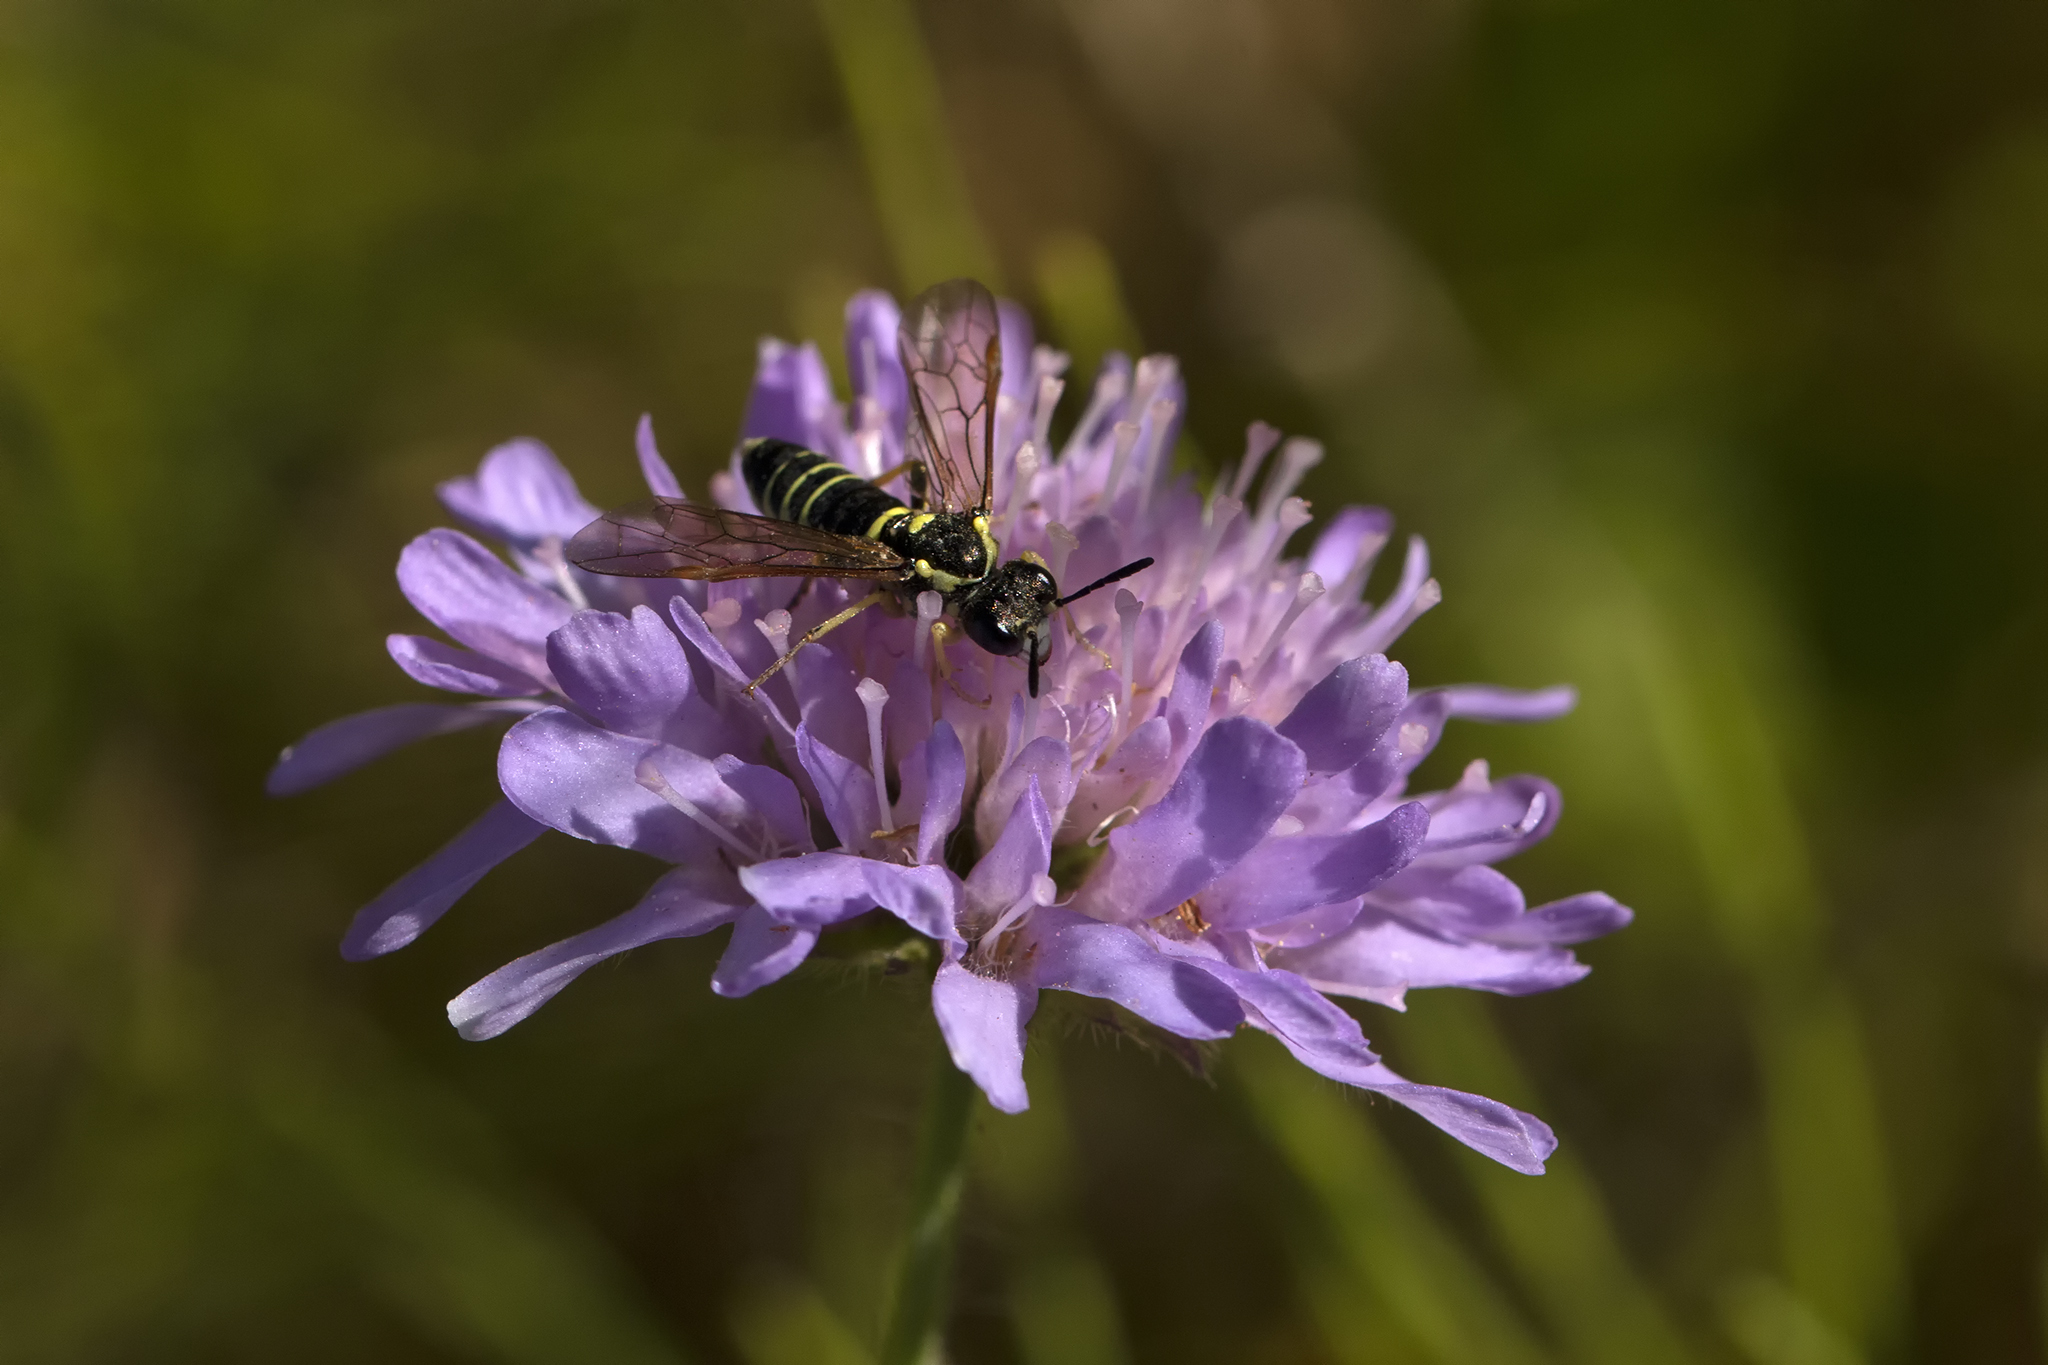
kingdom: Animalia
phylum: Arthropoda
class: Insecta
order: Hymenoptera
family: Tenthredinidae
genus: Tenthredo
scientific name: Tenthredo notha
